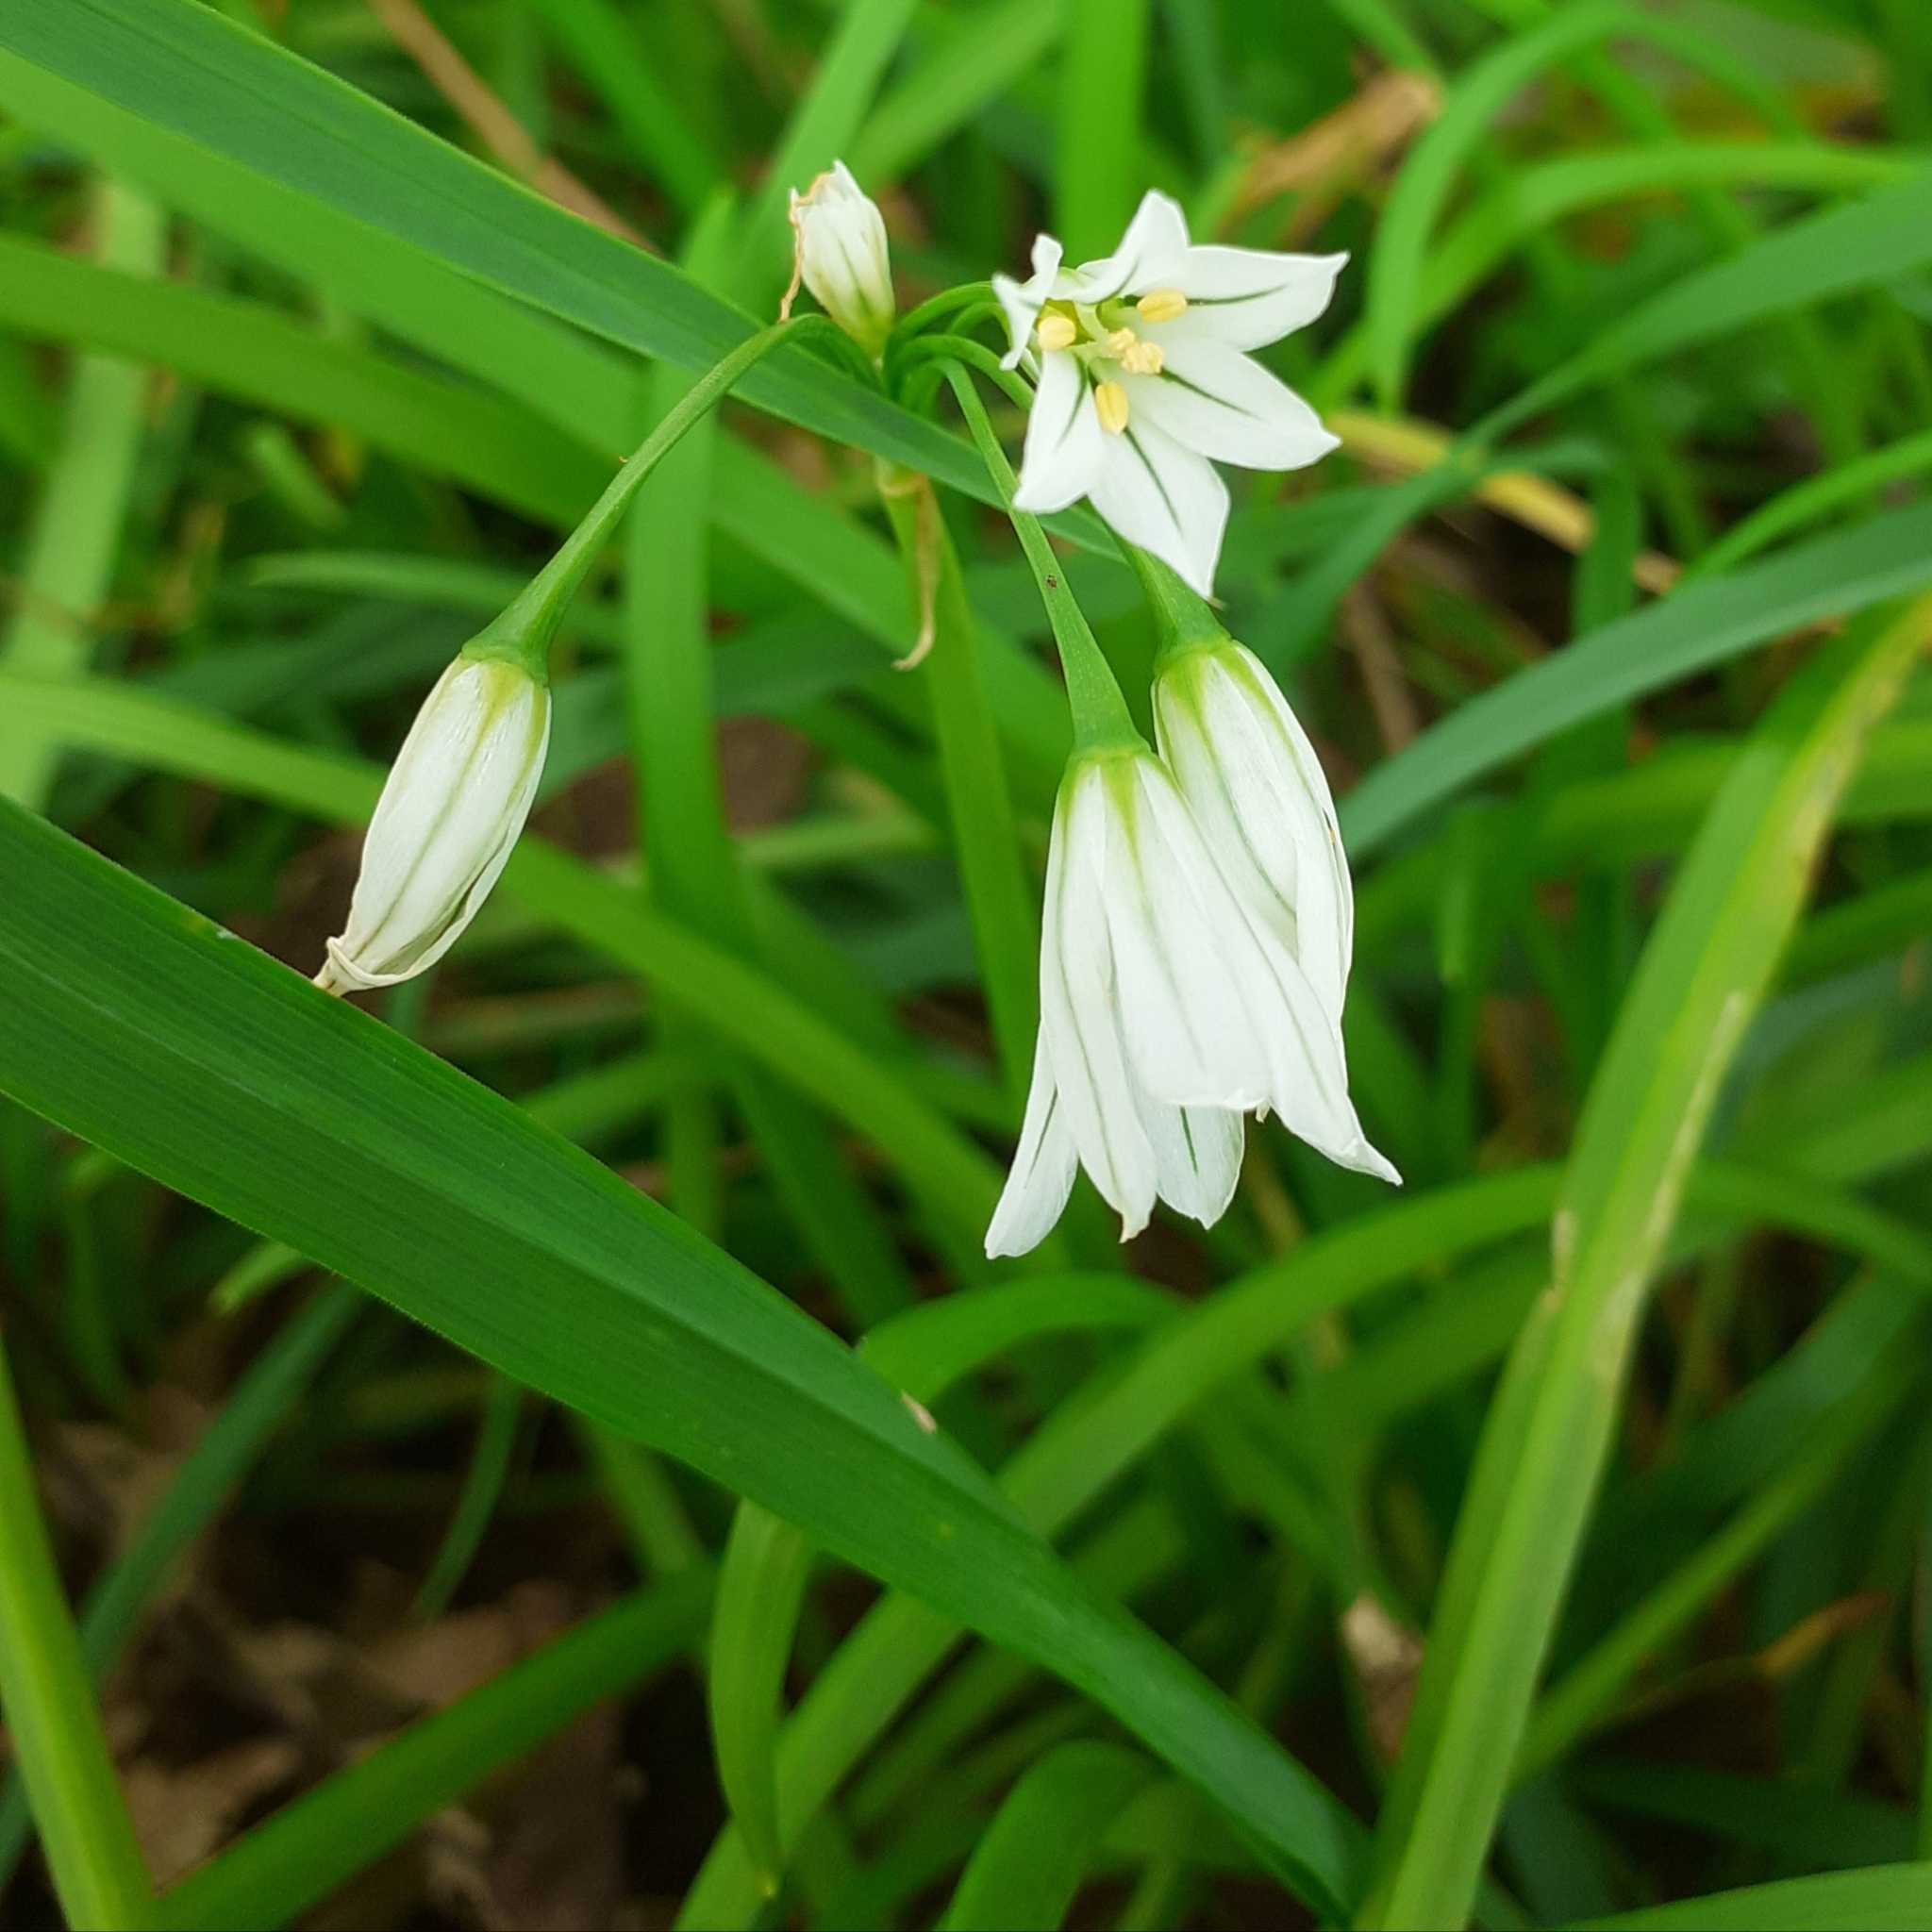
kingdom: Plantae
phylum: Tracheophyta
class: Liliopsida
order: Asparagales
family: Amaryllidaceae
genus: Allium
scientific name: Allium triquetrum
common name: Three-cornered garlic
